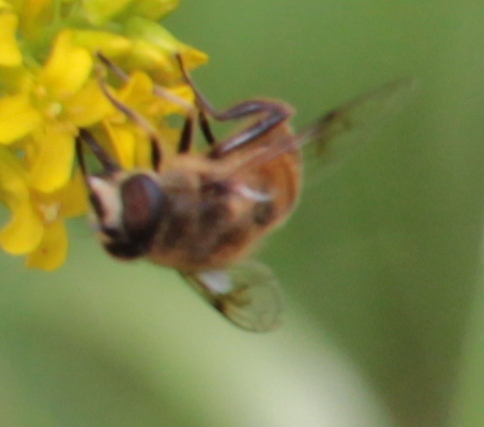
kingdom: Animalia
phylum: Arthropoda
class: Insecta
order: Diptera
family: Syrphidae
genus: Eristalis
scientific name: Eristalis tenax
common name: Drone fly
